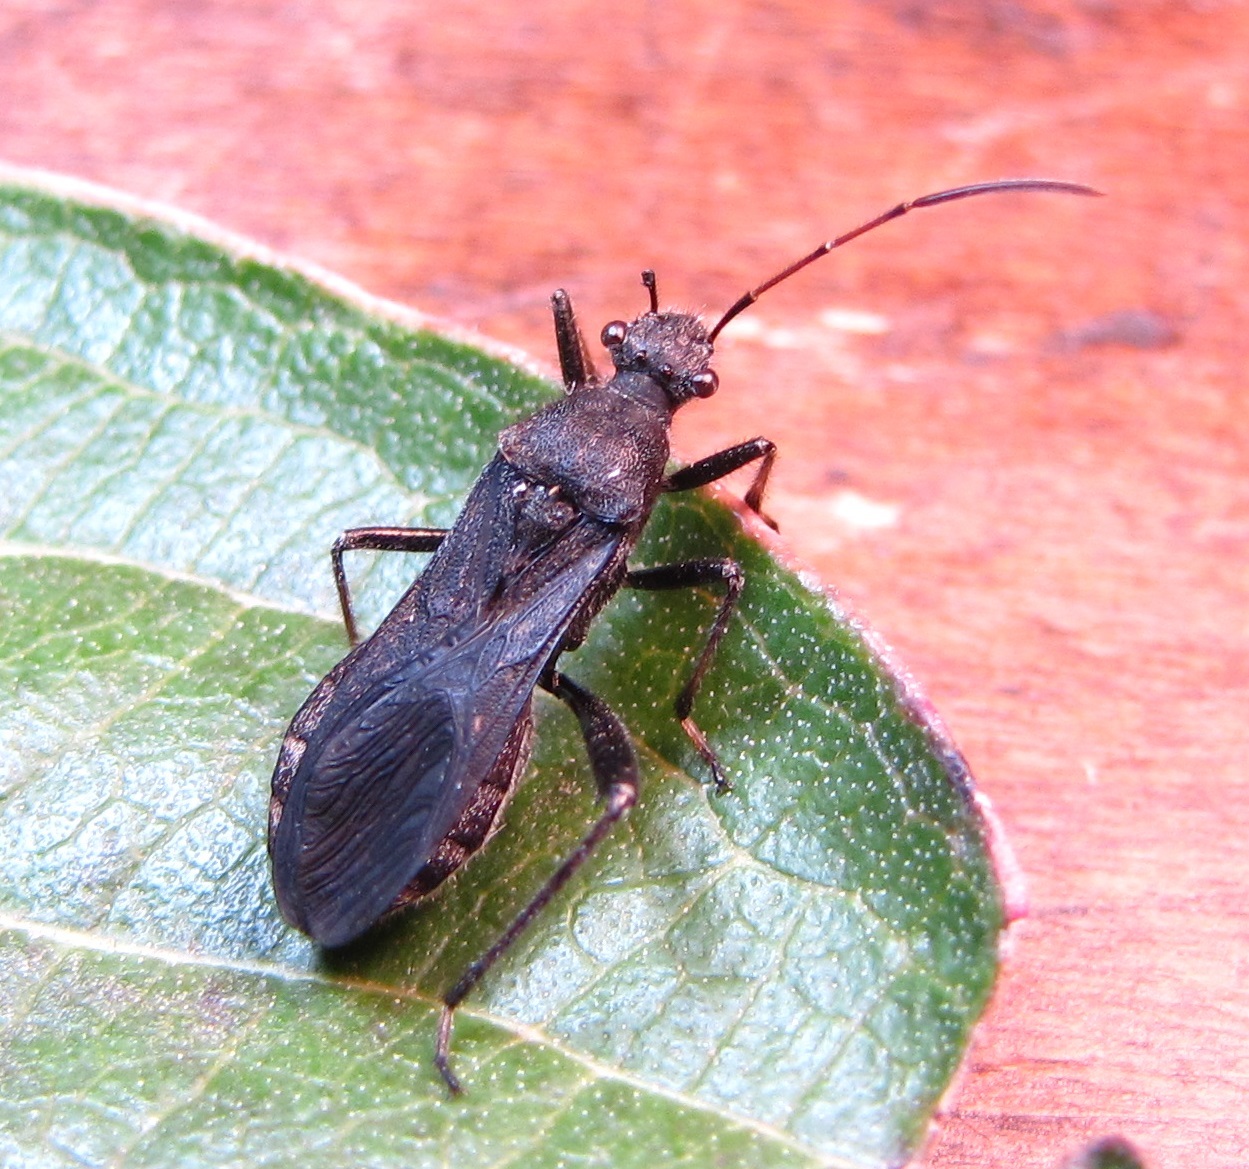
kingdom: Animalia
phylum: Arthropoda
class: Insecta
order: Hemiptera
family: Alydidae
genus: Alydus
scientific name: Alydus eurinus
